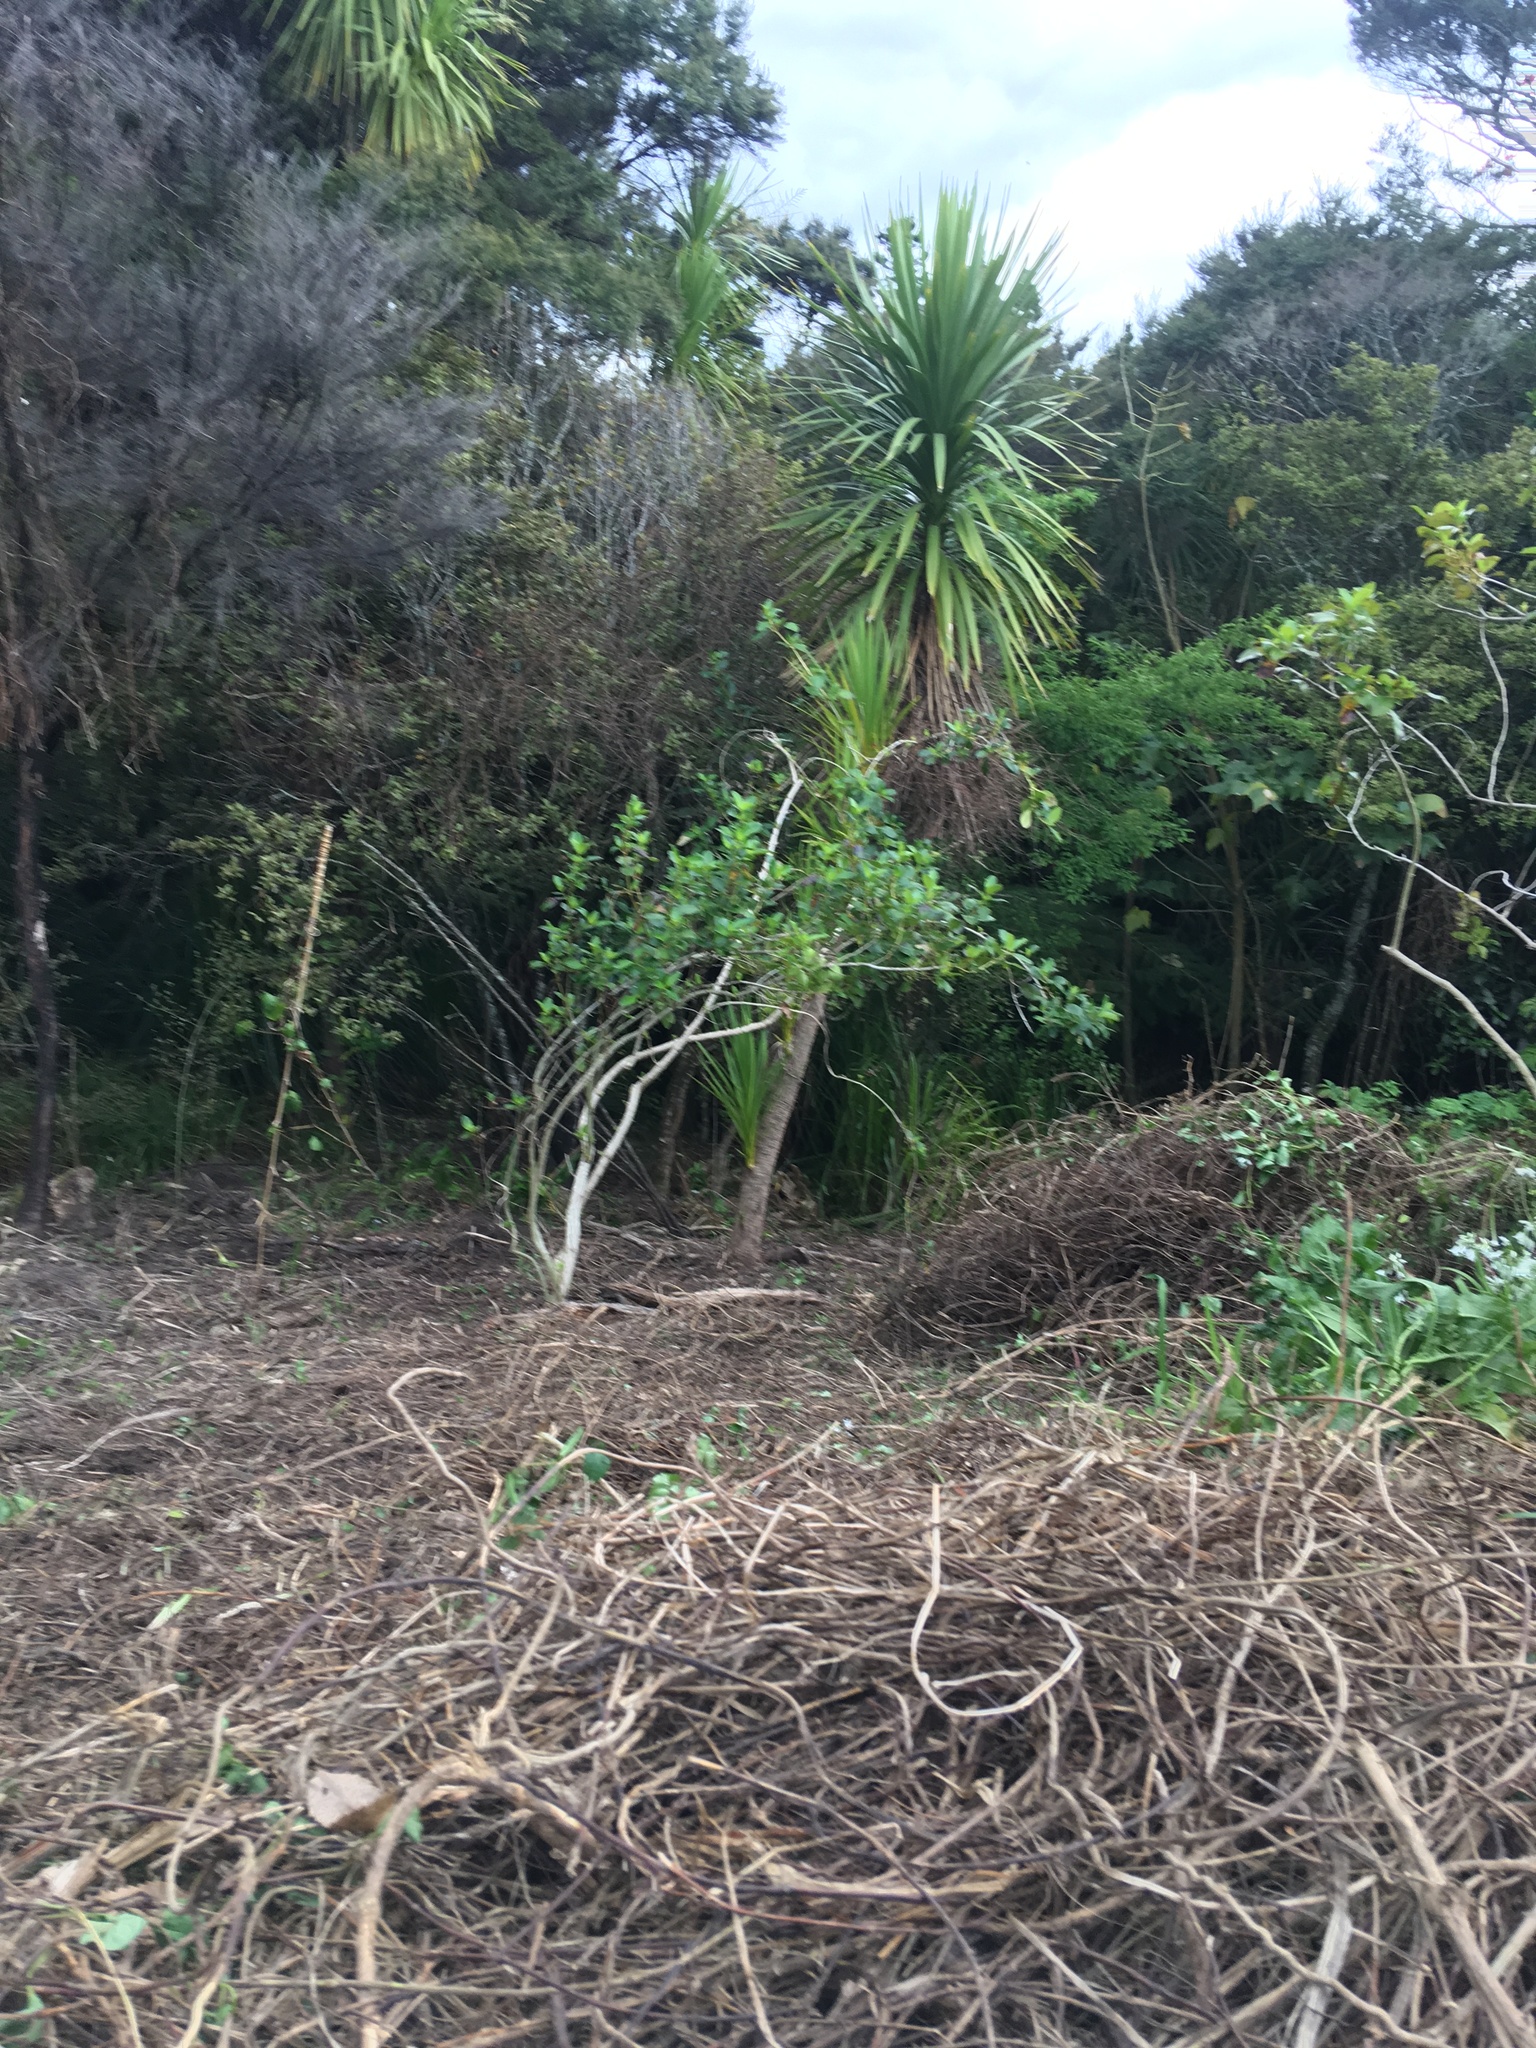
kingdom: Plantae
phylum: Tracheophyta
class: Liliopsida
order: Asparagales
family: Asparagaceae
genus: Cordyline
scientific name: Cordyline australis
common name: Cabbage-palm
